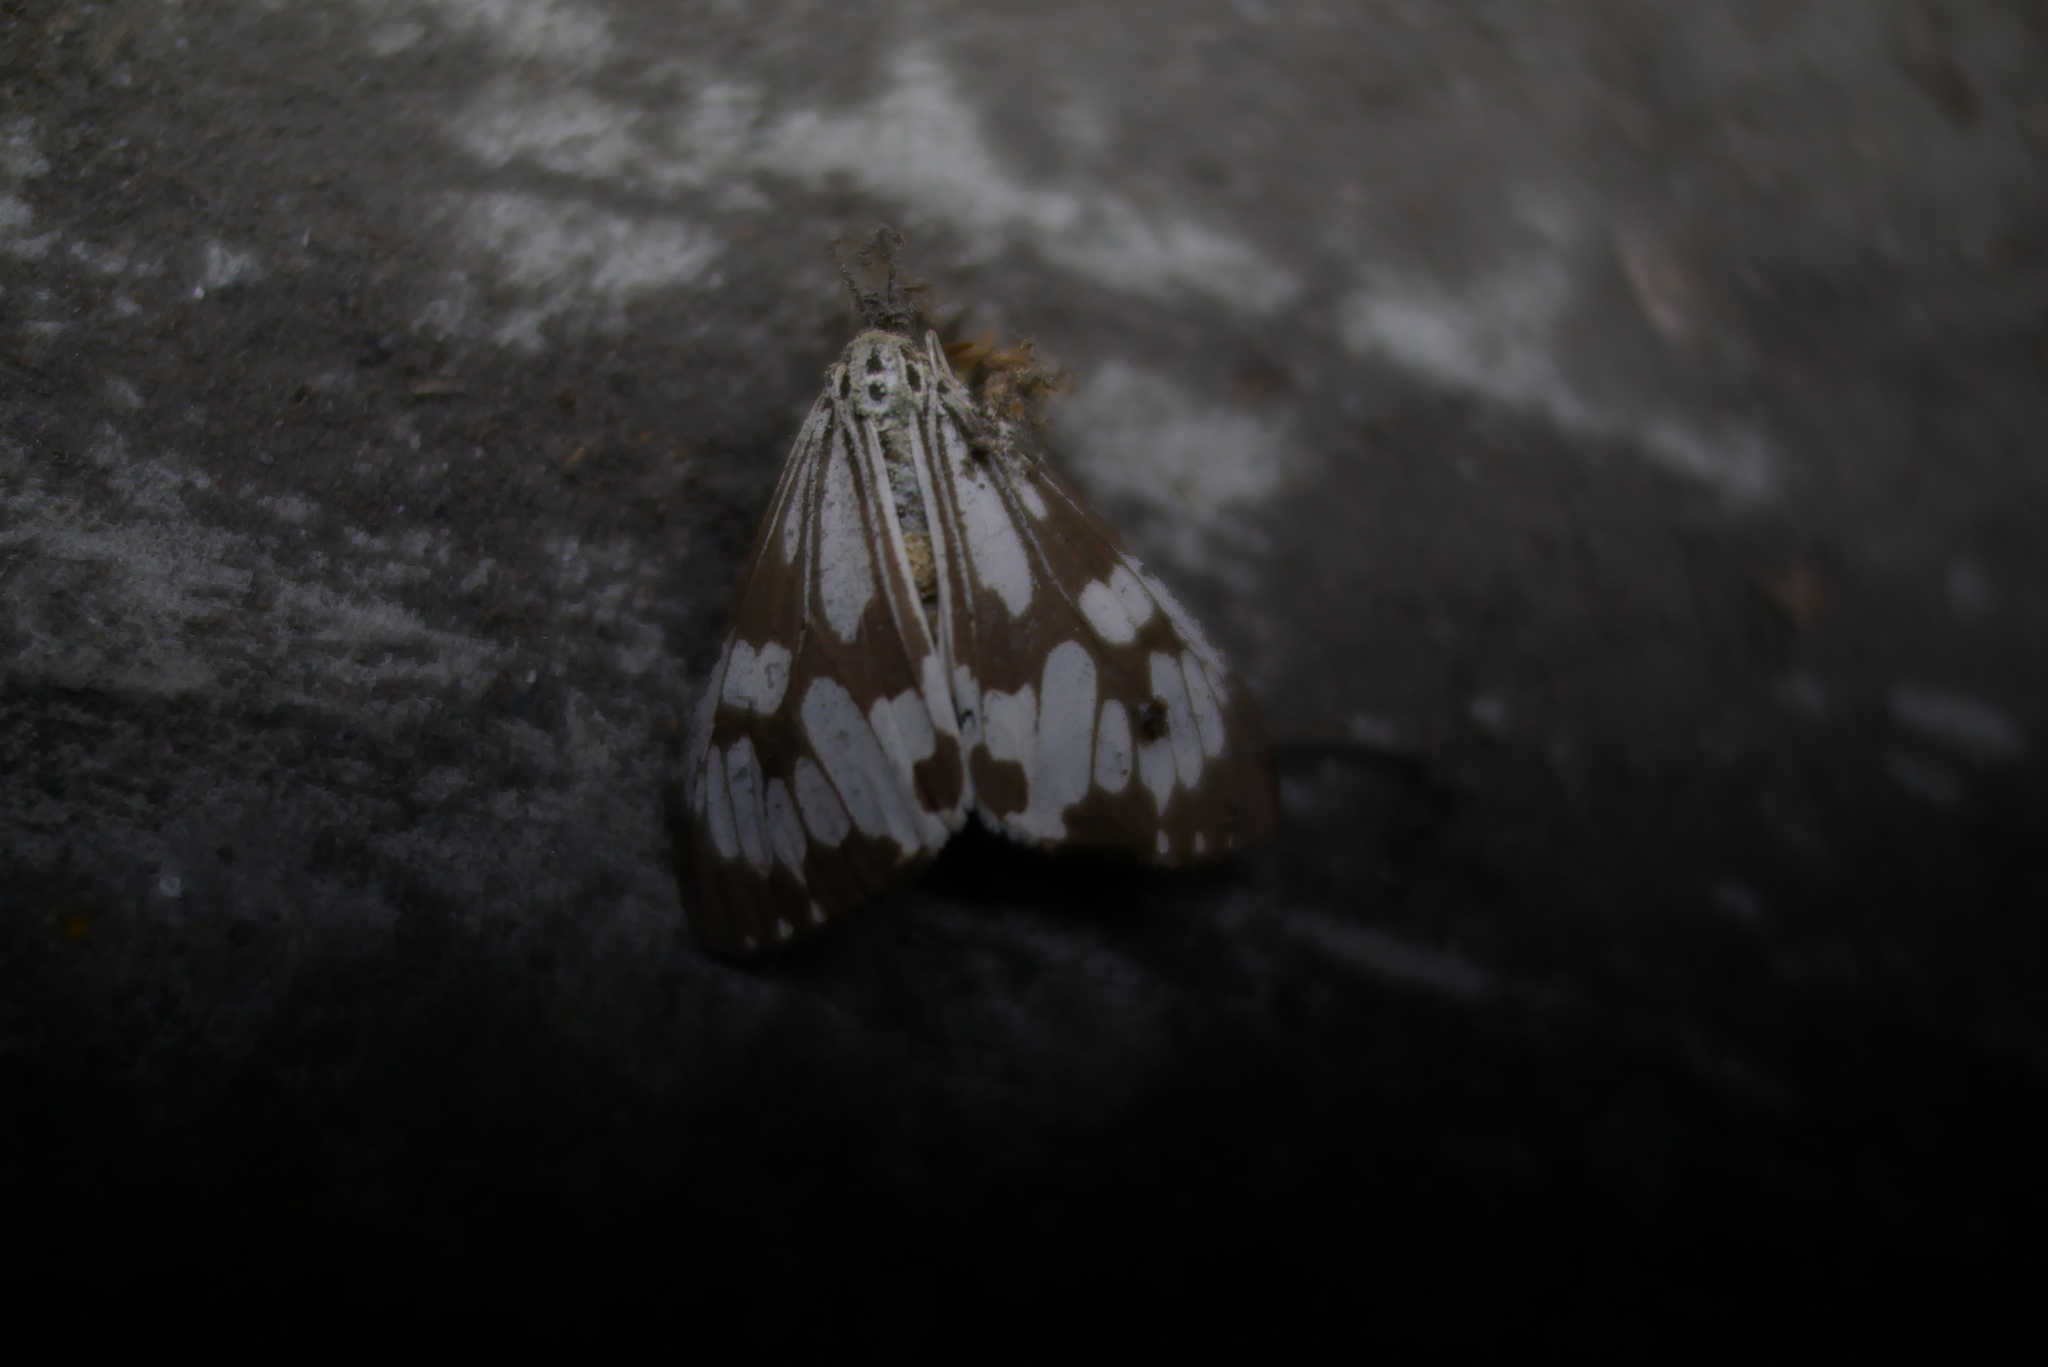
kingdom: Animalia
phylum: Arthropoda
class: Insecta
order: Lepidoptera
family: Erebidae
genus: Nyctemera
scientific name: Nyctemera adversata
